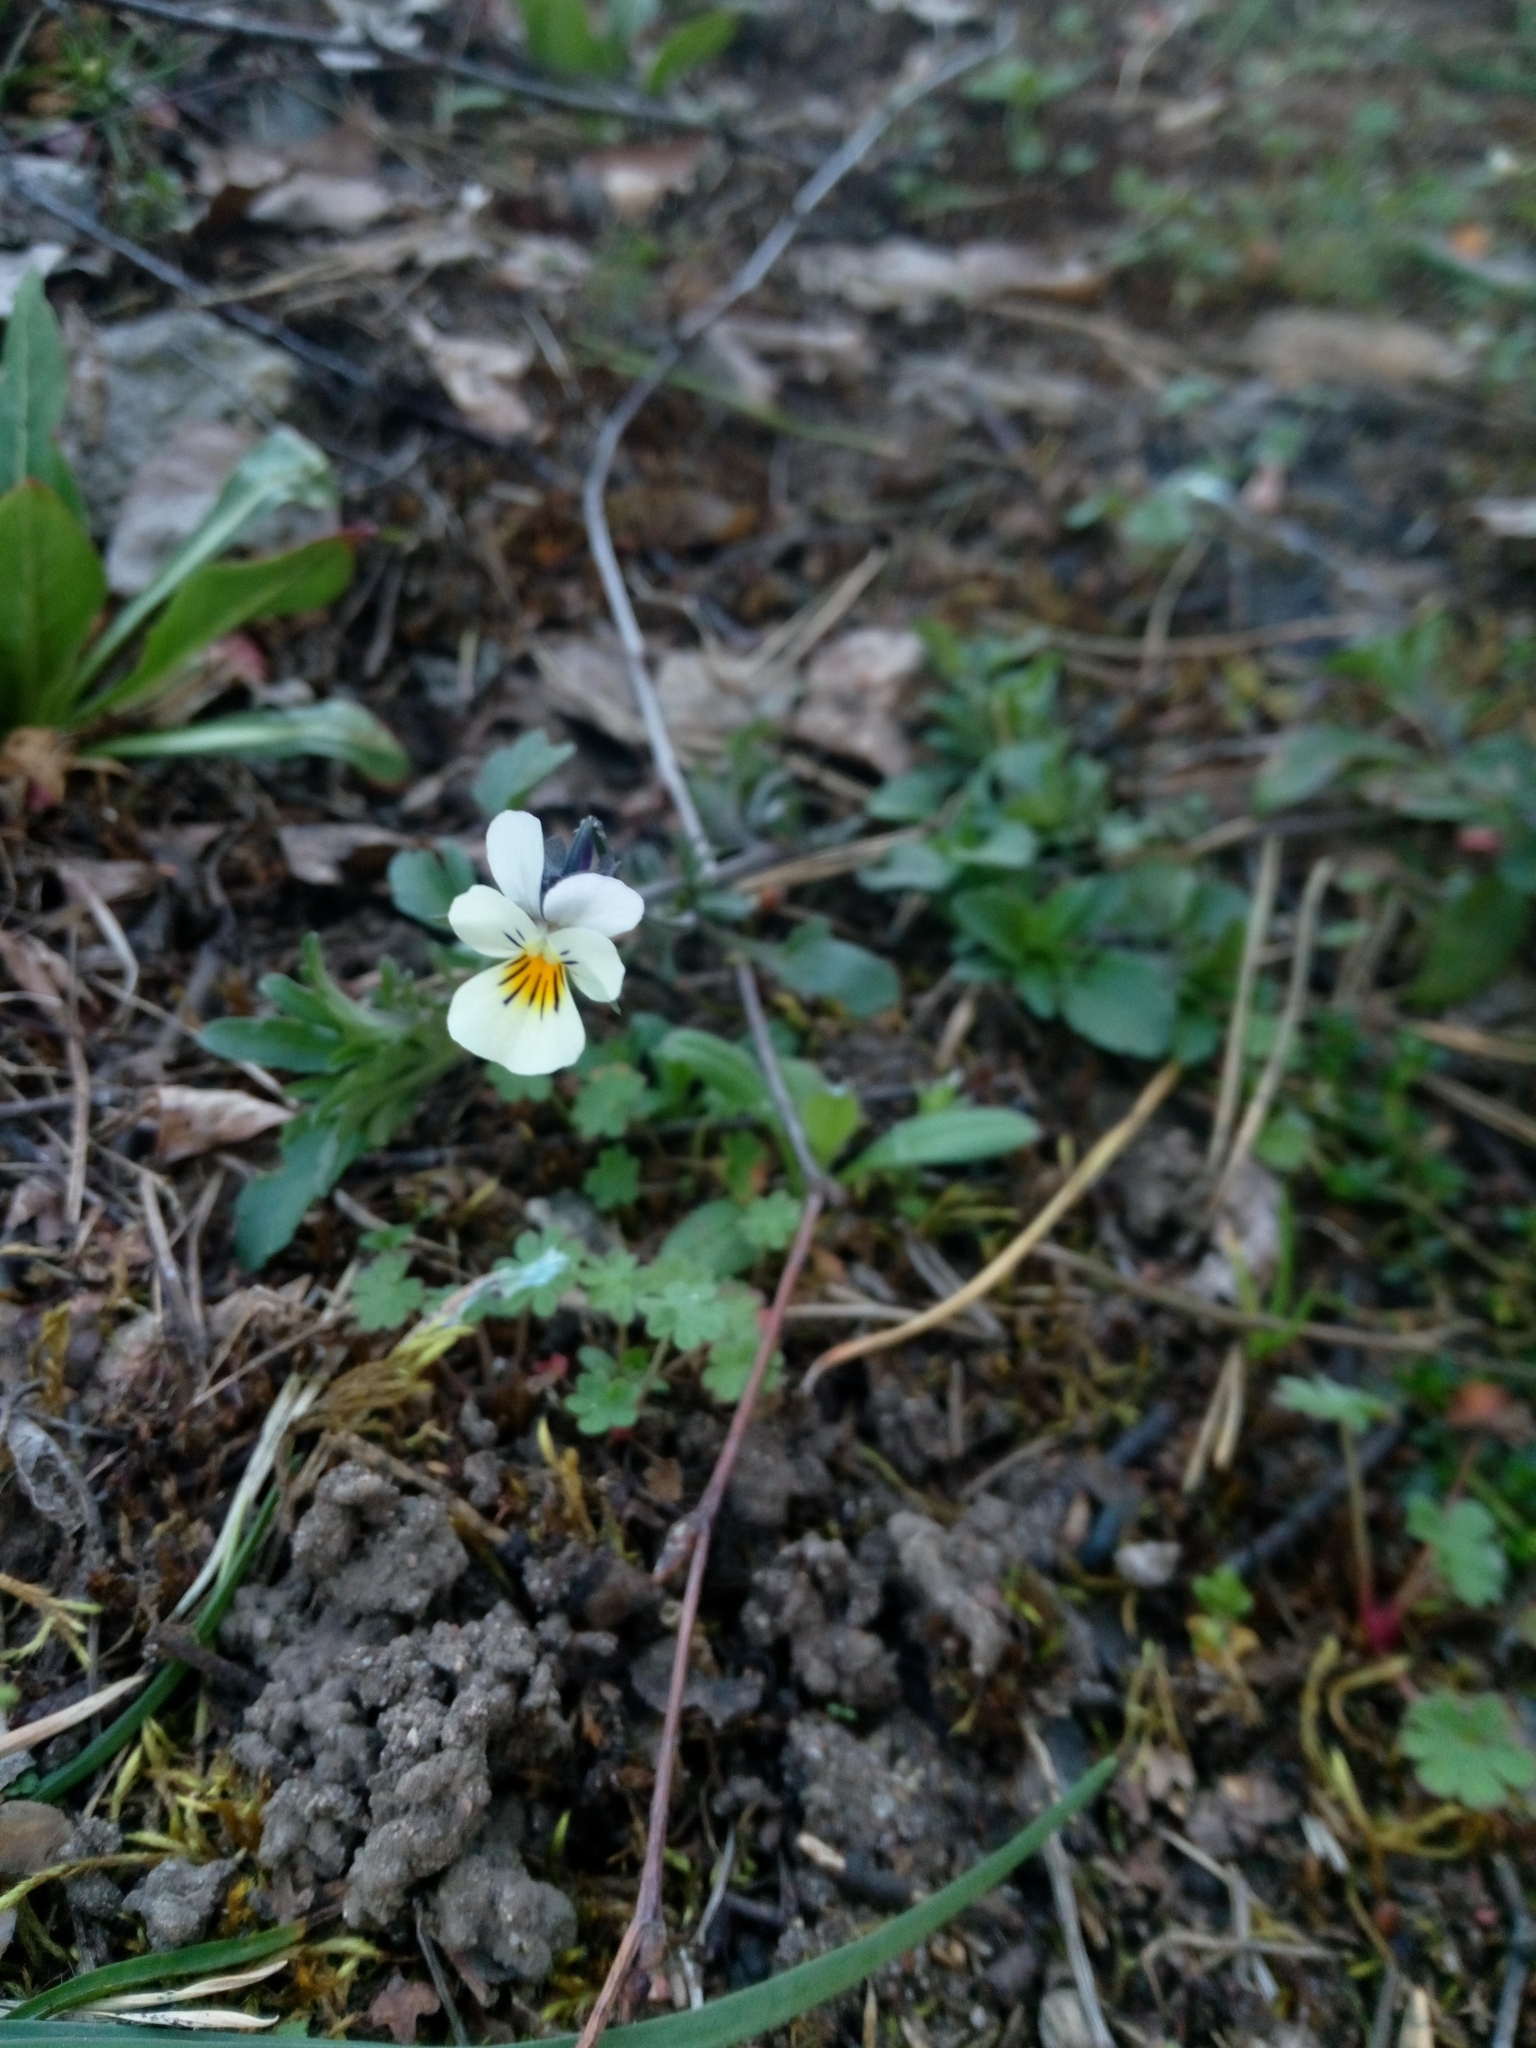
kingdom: Plantae
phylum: Tracheophyta
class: Magnoliopsida
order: Malpighiales
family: Violaceae
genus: Viola
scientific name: Viola arvensis
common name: Field pansy
